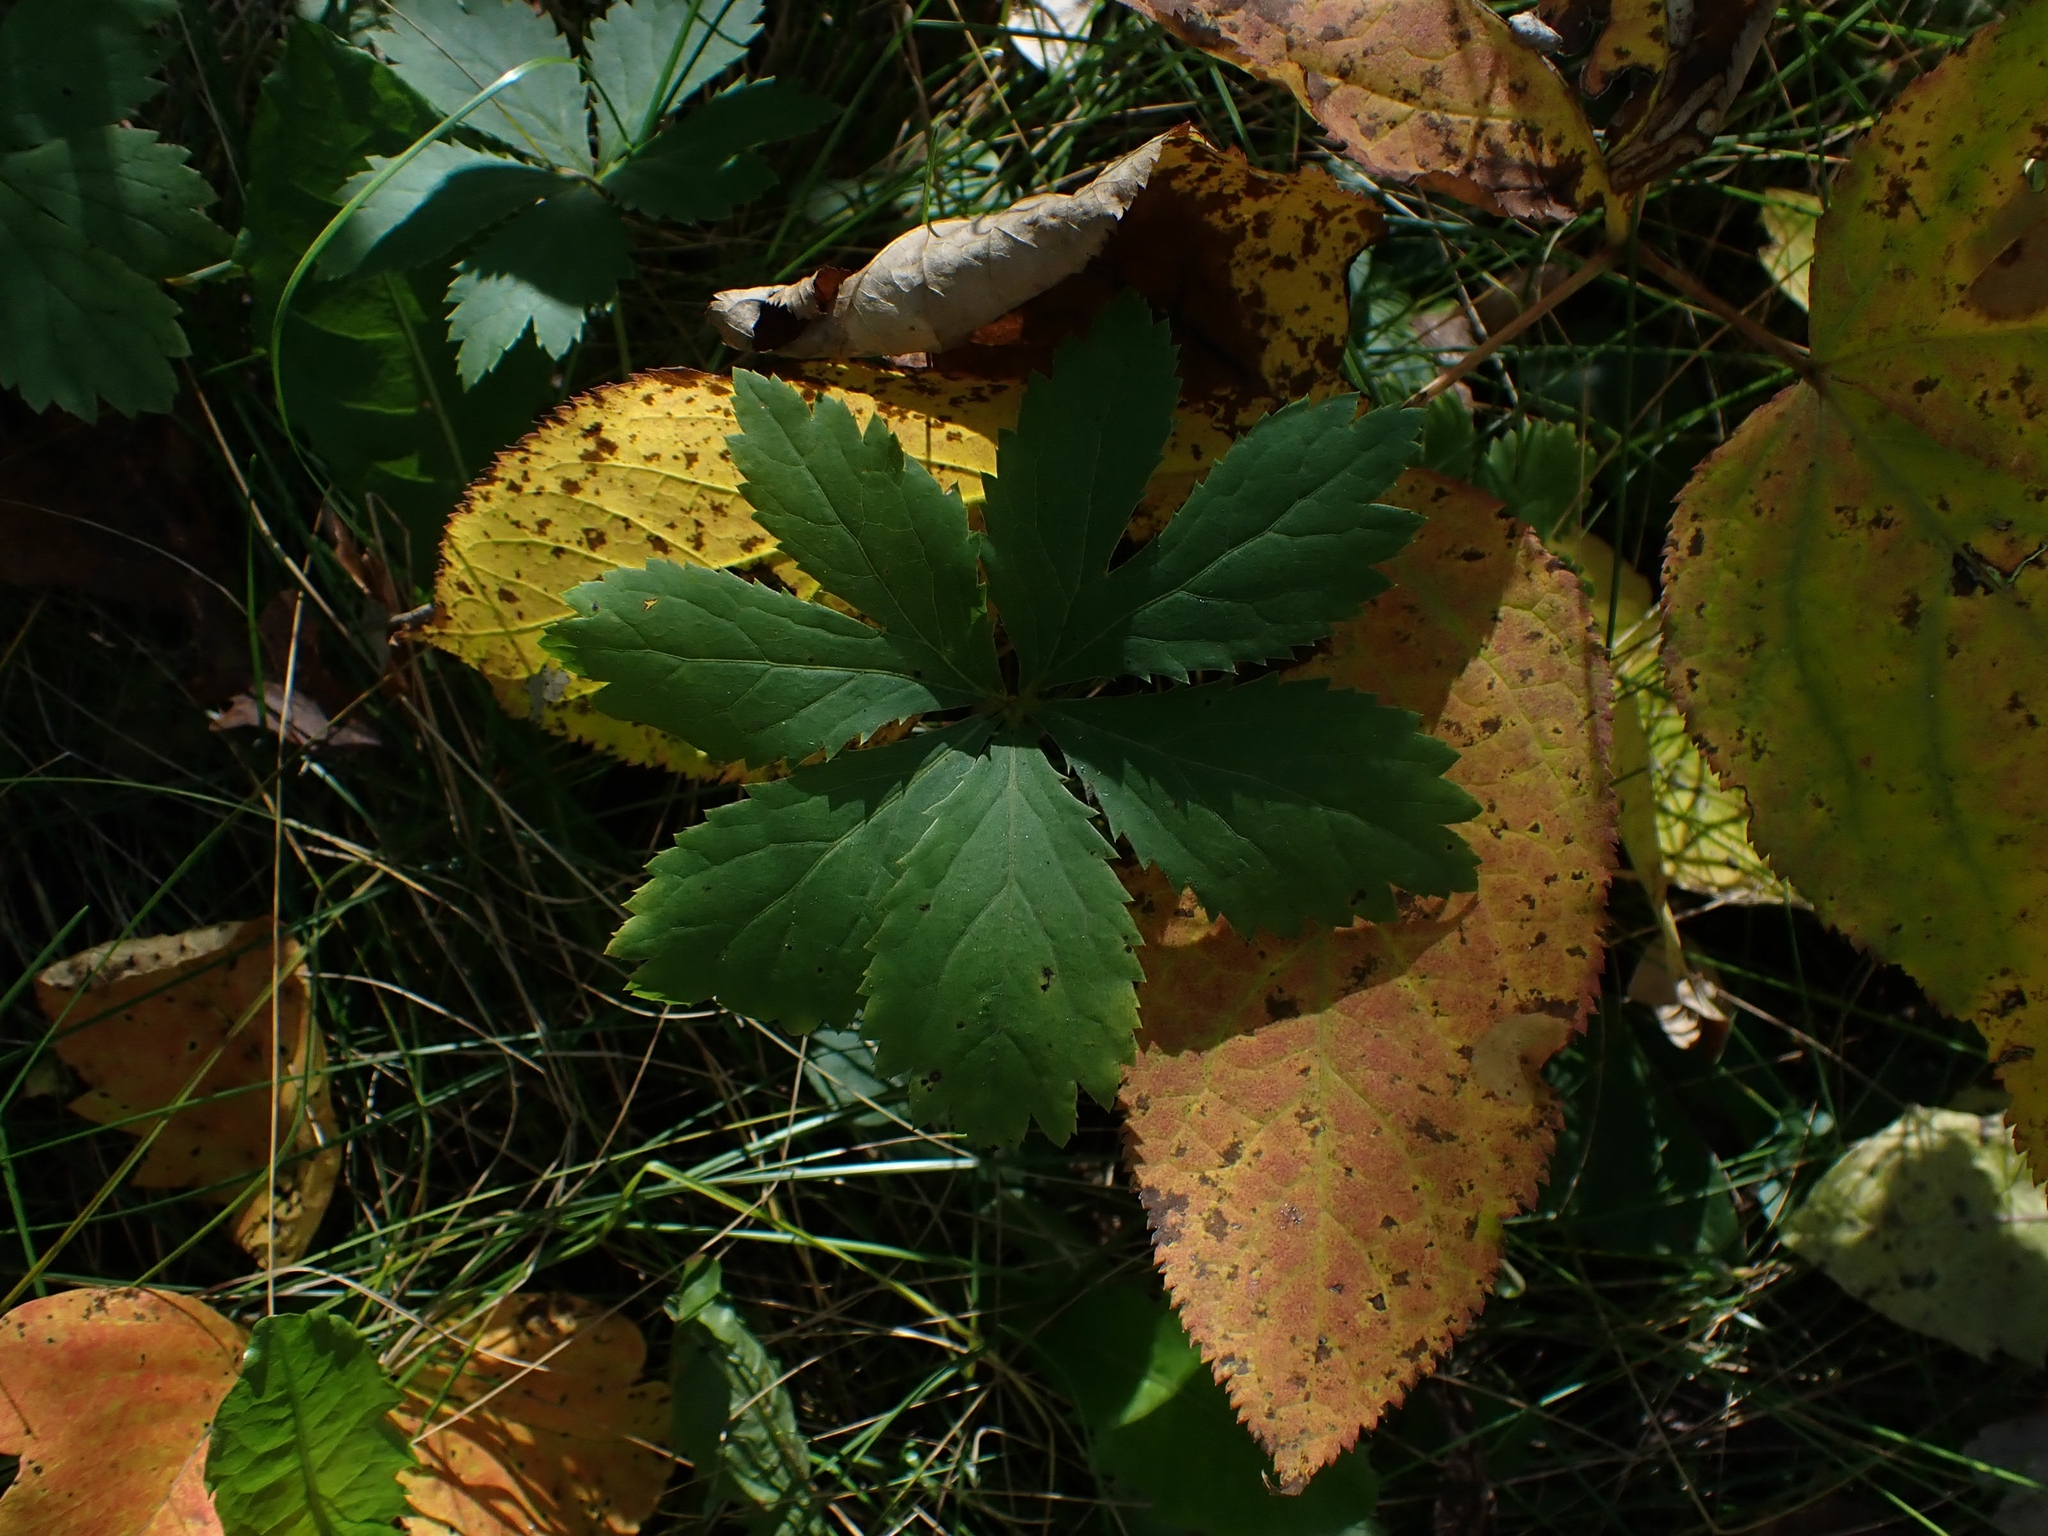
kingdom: Plantae
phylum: Tracheophyta
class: Magnoliopsida
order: Apiales
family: Apiaceae
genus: Sanicula
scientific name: Sanicula marilandica
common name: Black snakeroot
